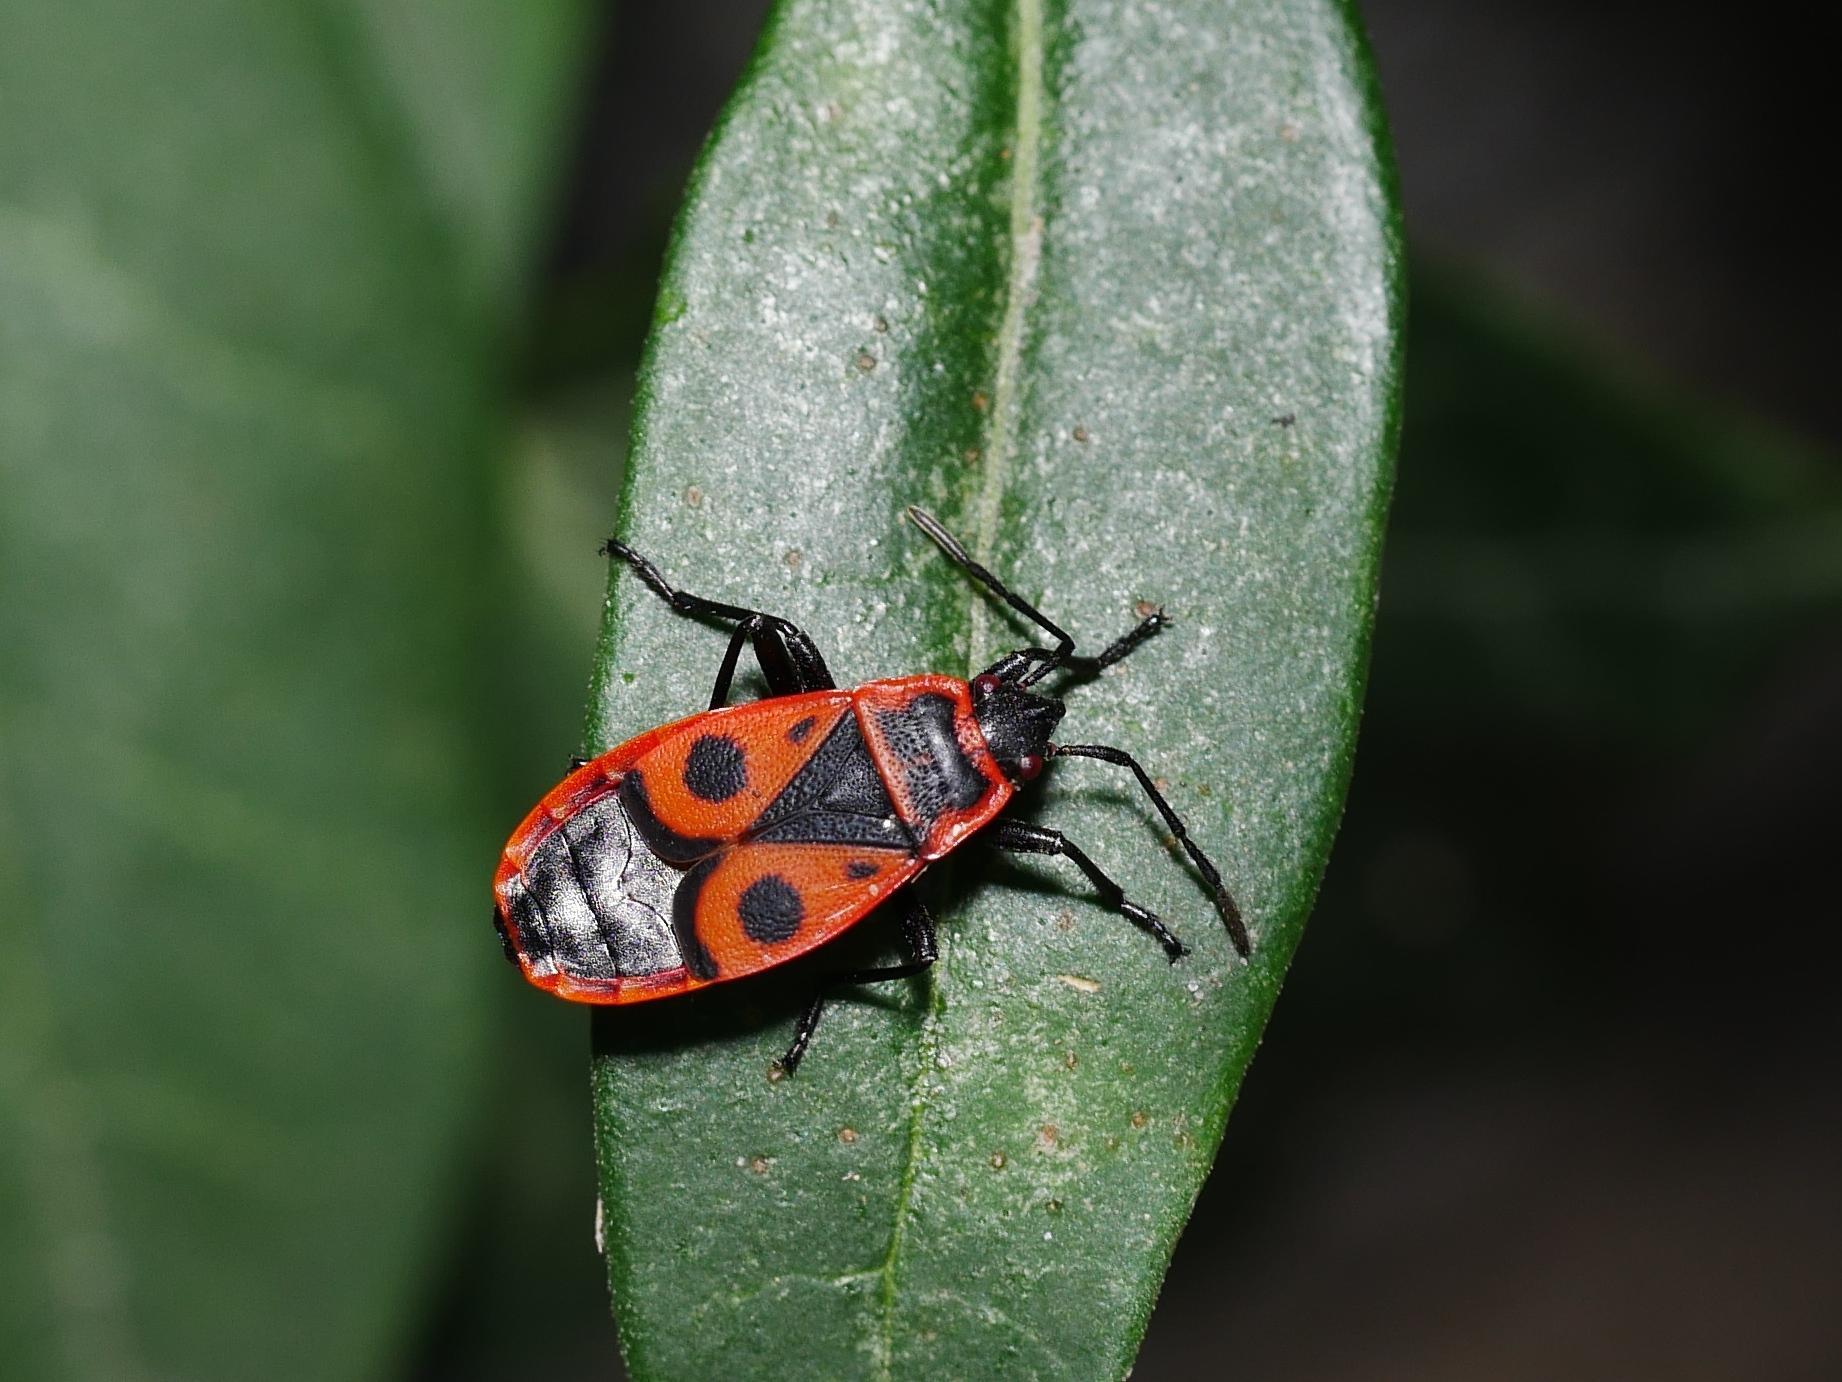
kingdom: Animalia
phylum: Arthropoda
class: Insecta
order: Hemiptera
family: Pyrrhocoridae
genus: Pyrrhocoris
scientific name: Pyrrhocoris apterus
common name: Firebug
